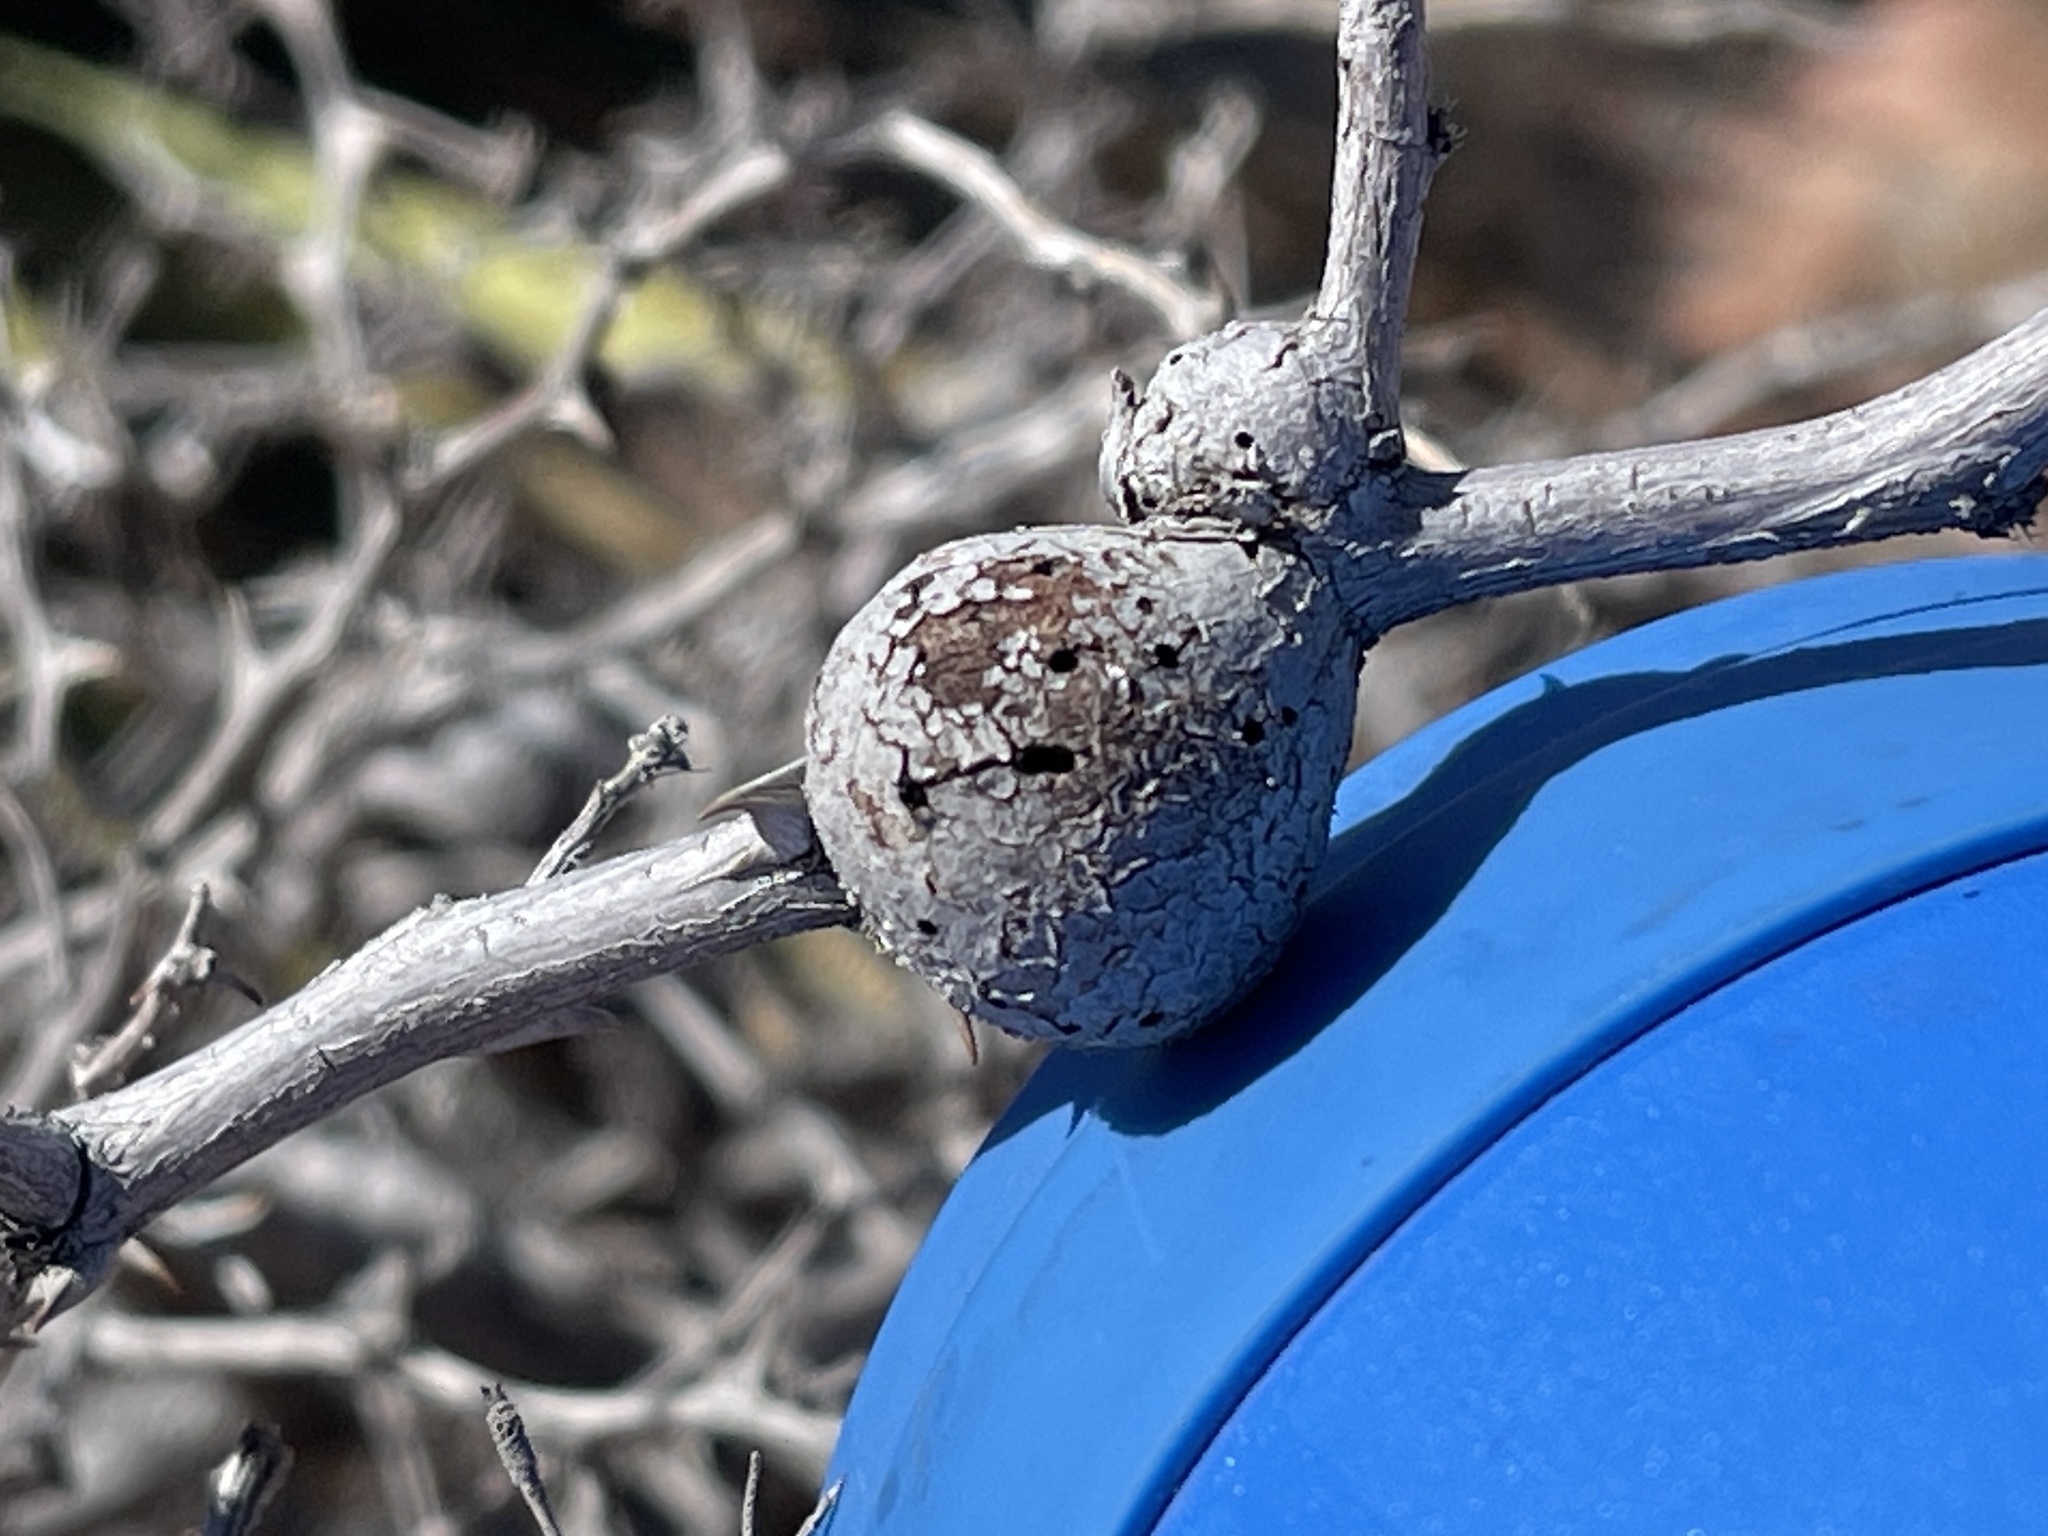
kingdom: Animalia
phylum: Arthropoda
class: Insecta
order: Hymenoptera
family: Tanaostigmatidae
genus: Tanaostigmodes
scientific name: Tanaostigmodes howardii
